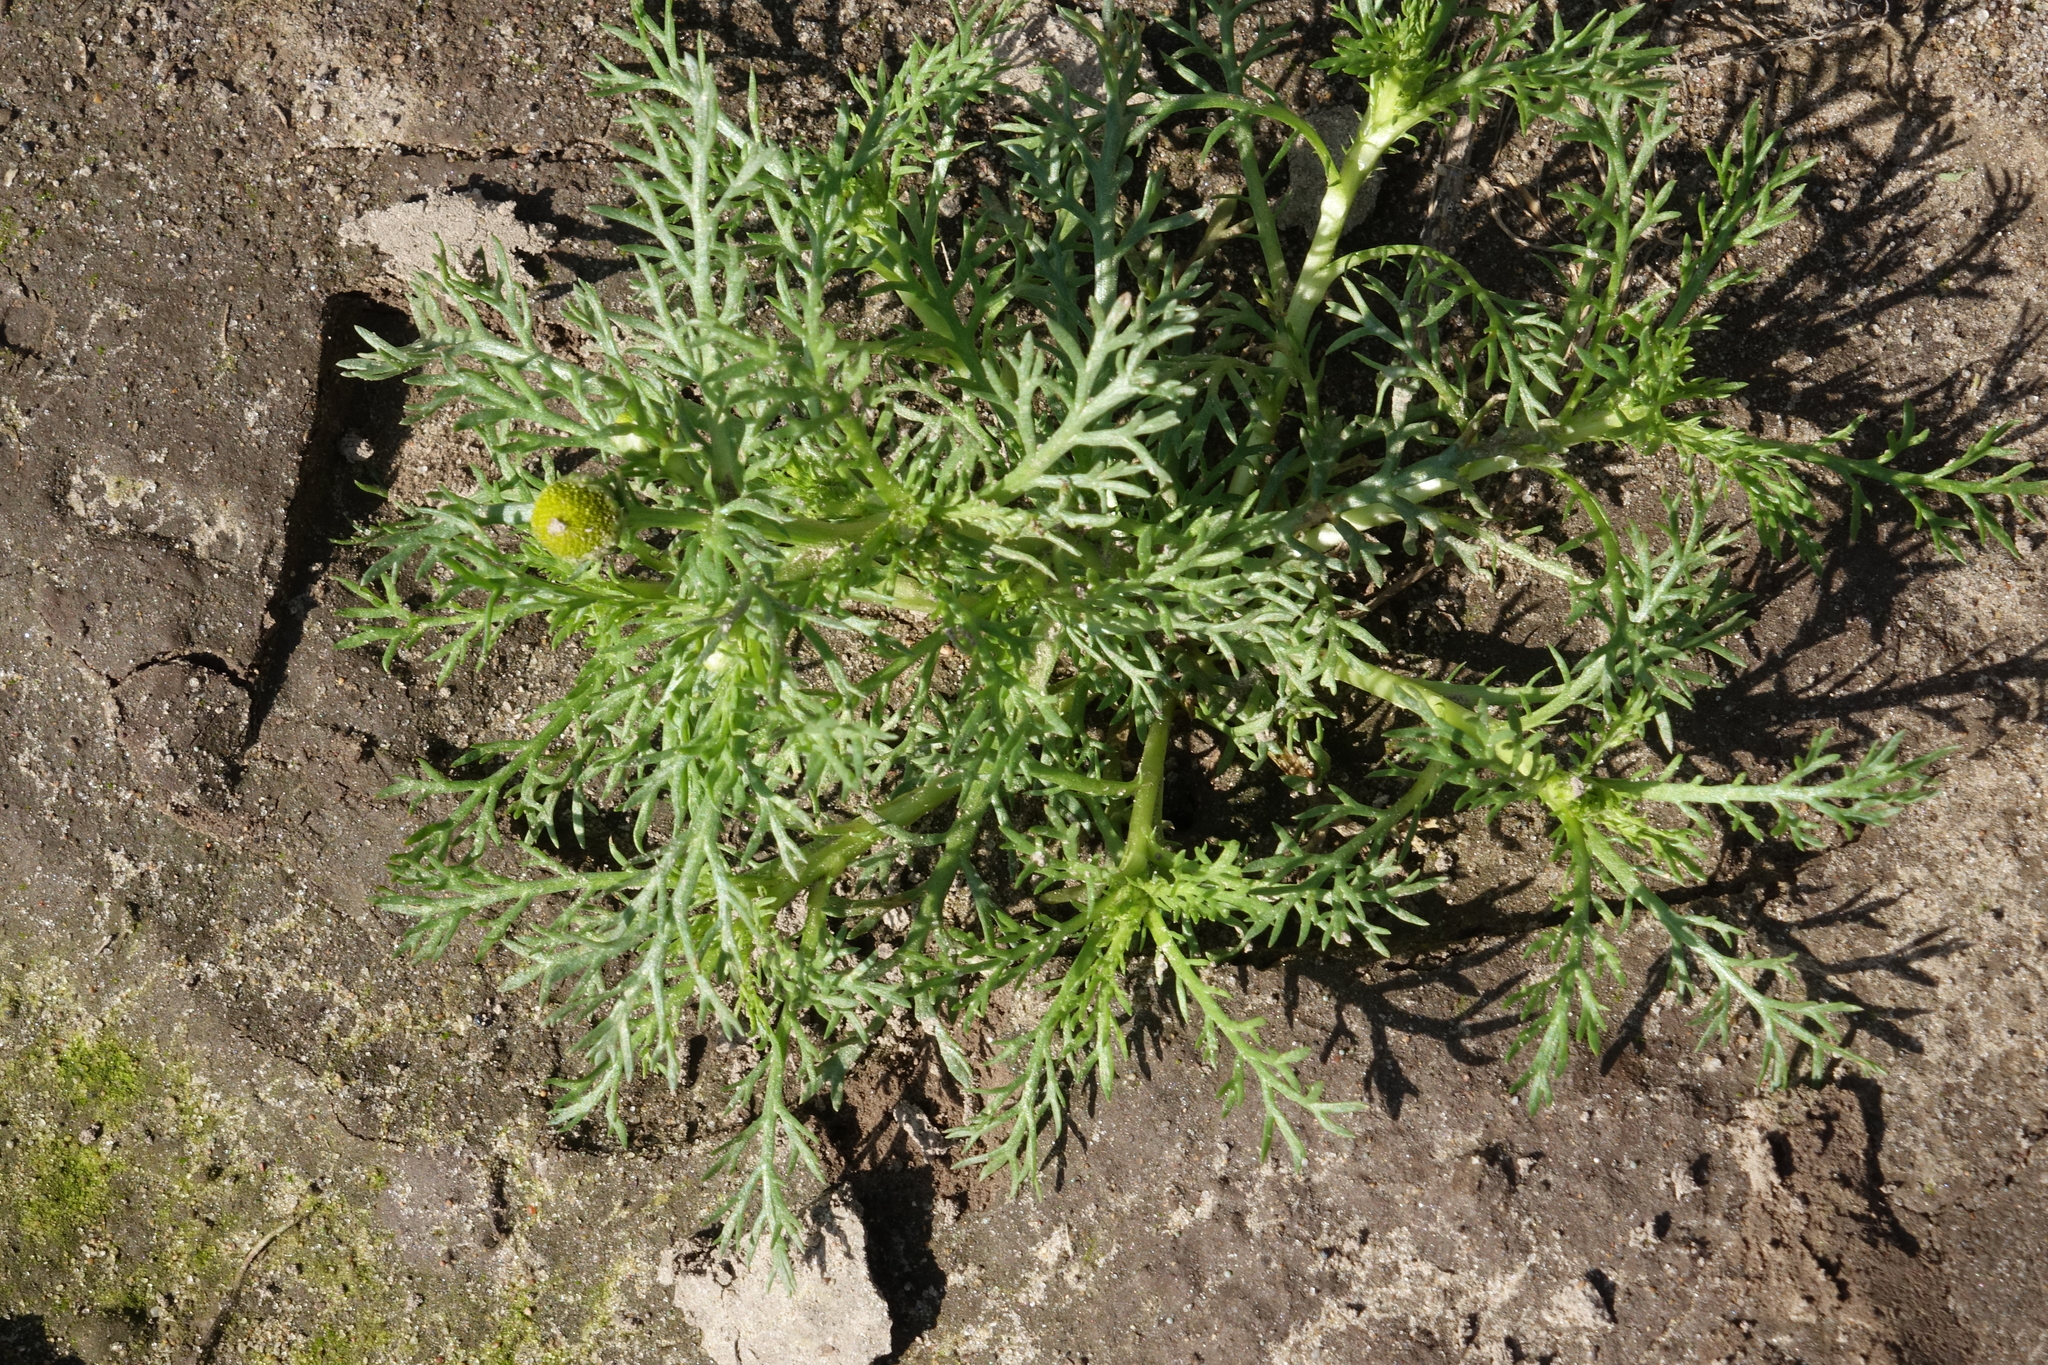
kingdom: Plantae
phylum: Tracheophyta
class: Magnoliopsida
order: Asterales
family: Asteraceae
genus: Matricaria
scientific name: Matricaria discoidea
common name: Disc mayweed
